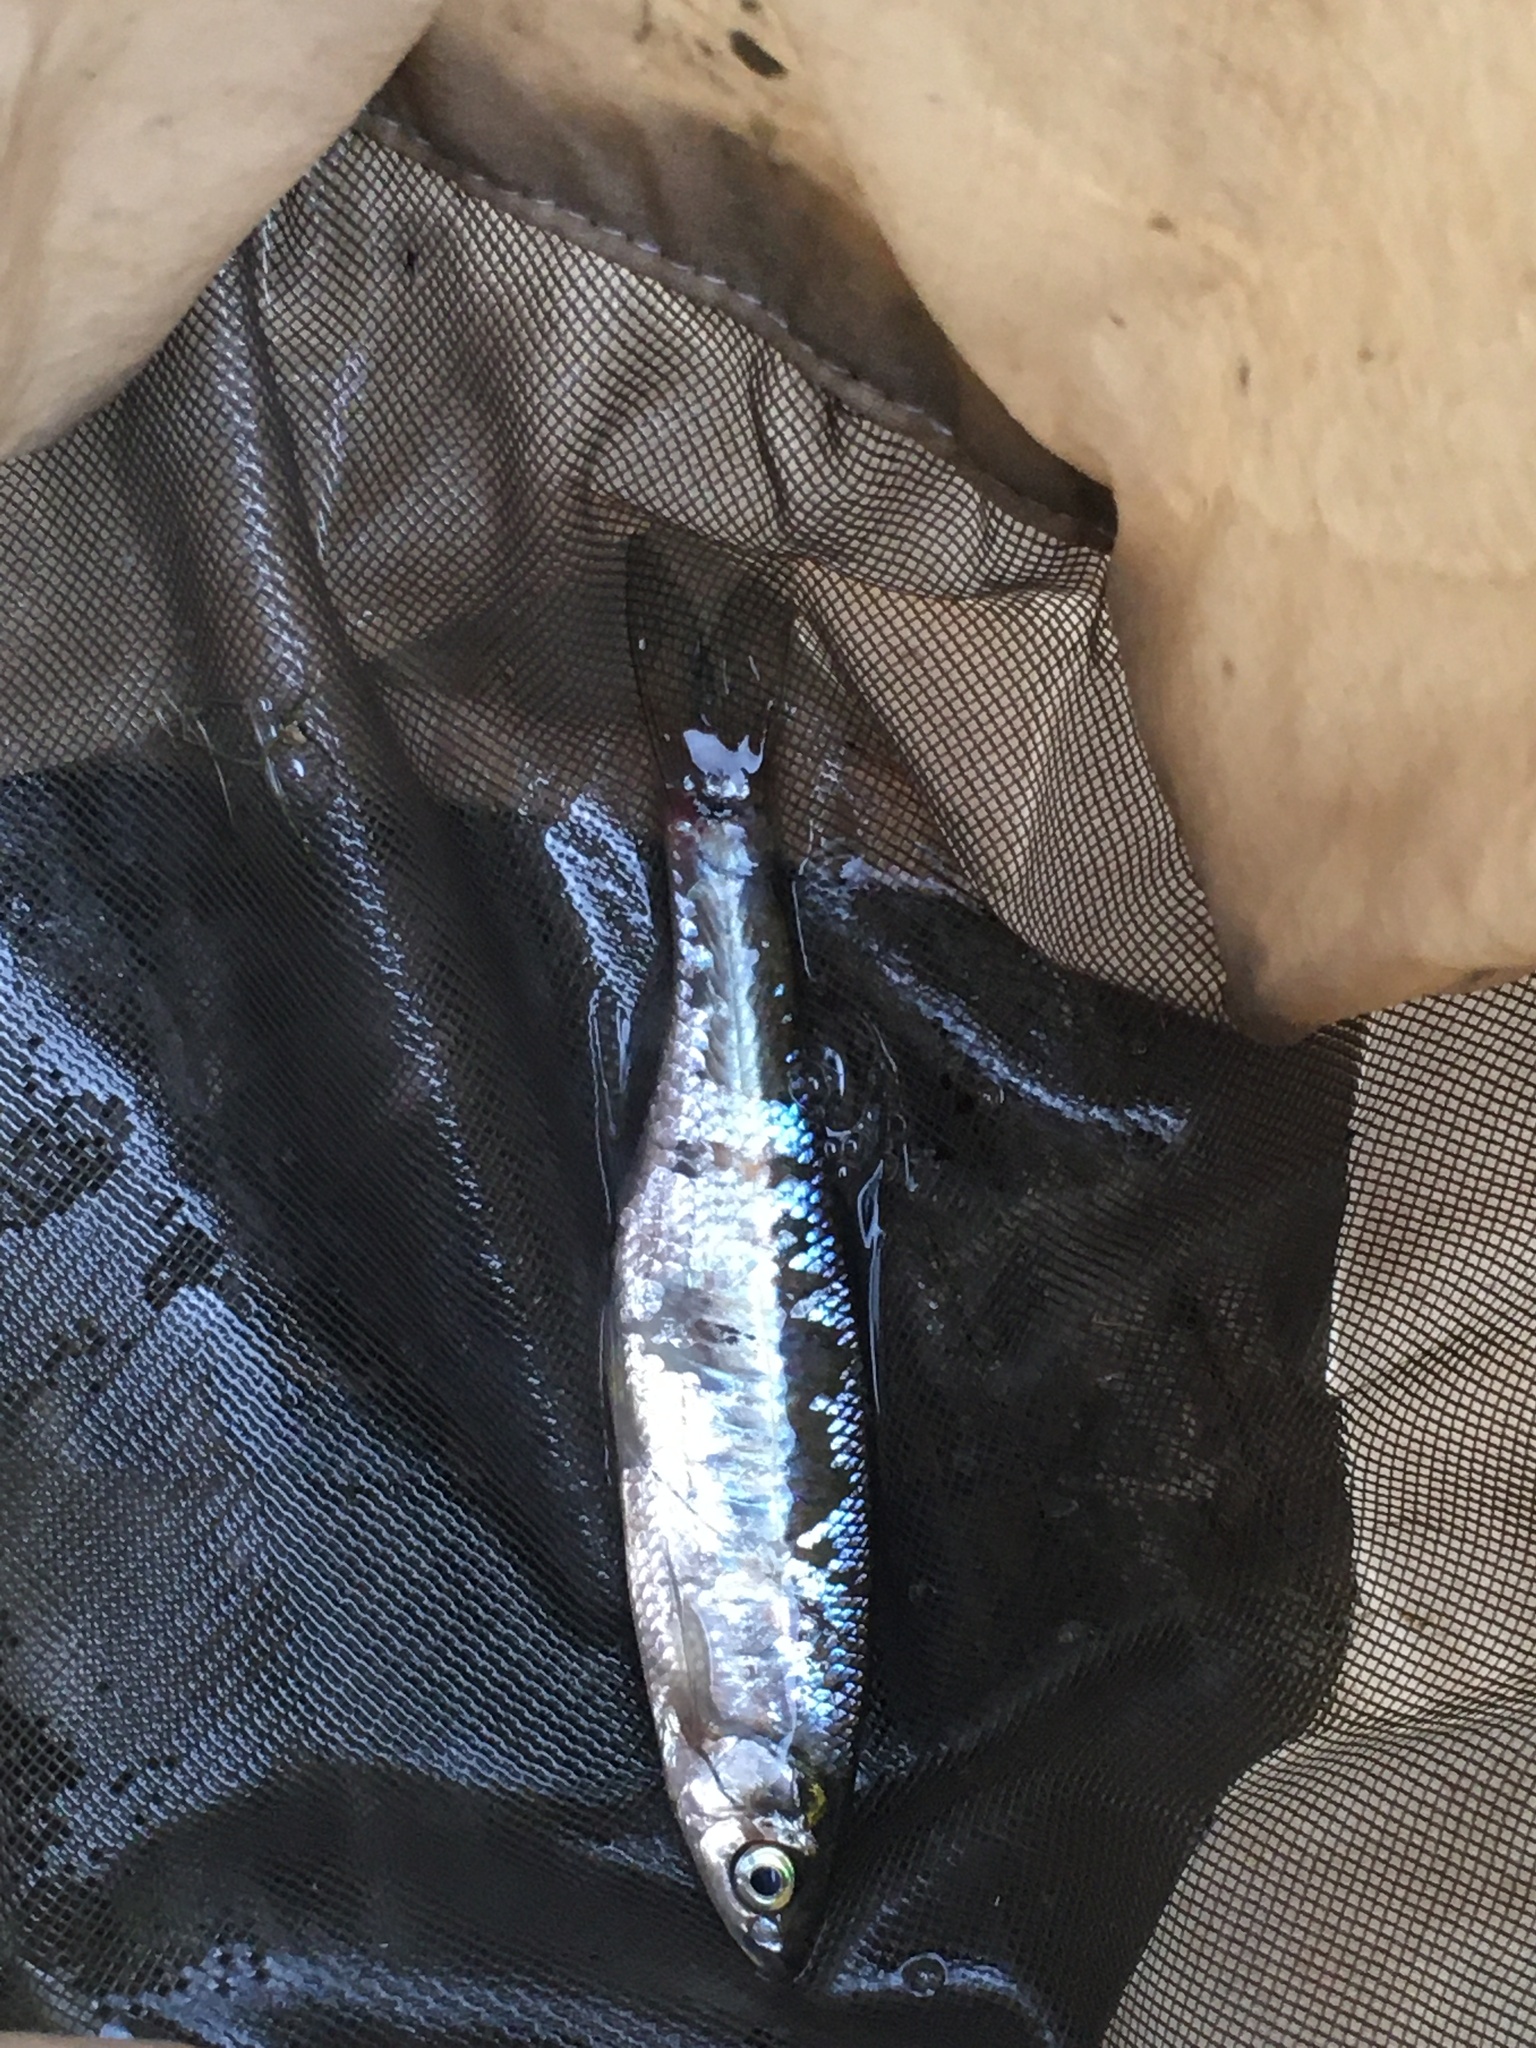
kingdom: Animalia
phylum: Chordata
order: Cypriniformes
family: Cyprinidae
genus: Notemigonus
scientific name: Notemigonus crysoleucas
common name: Golden shiner
